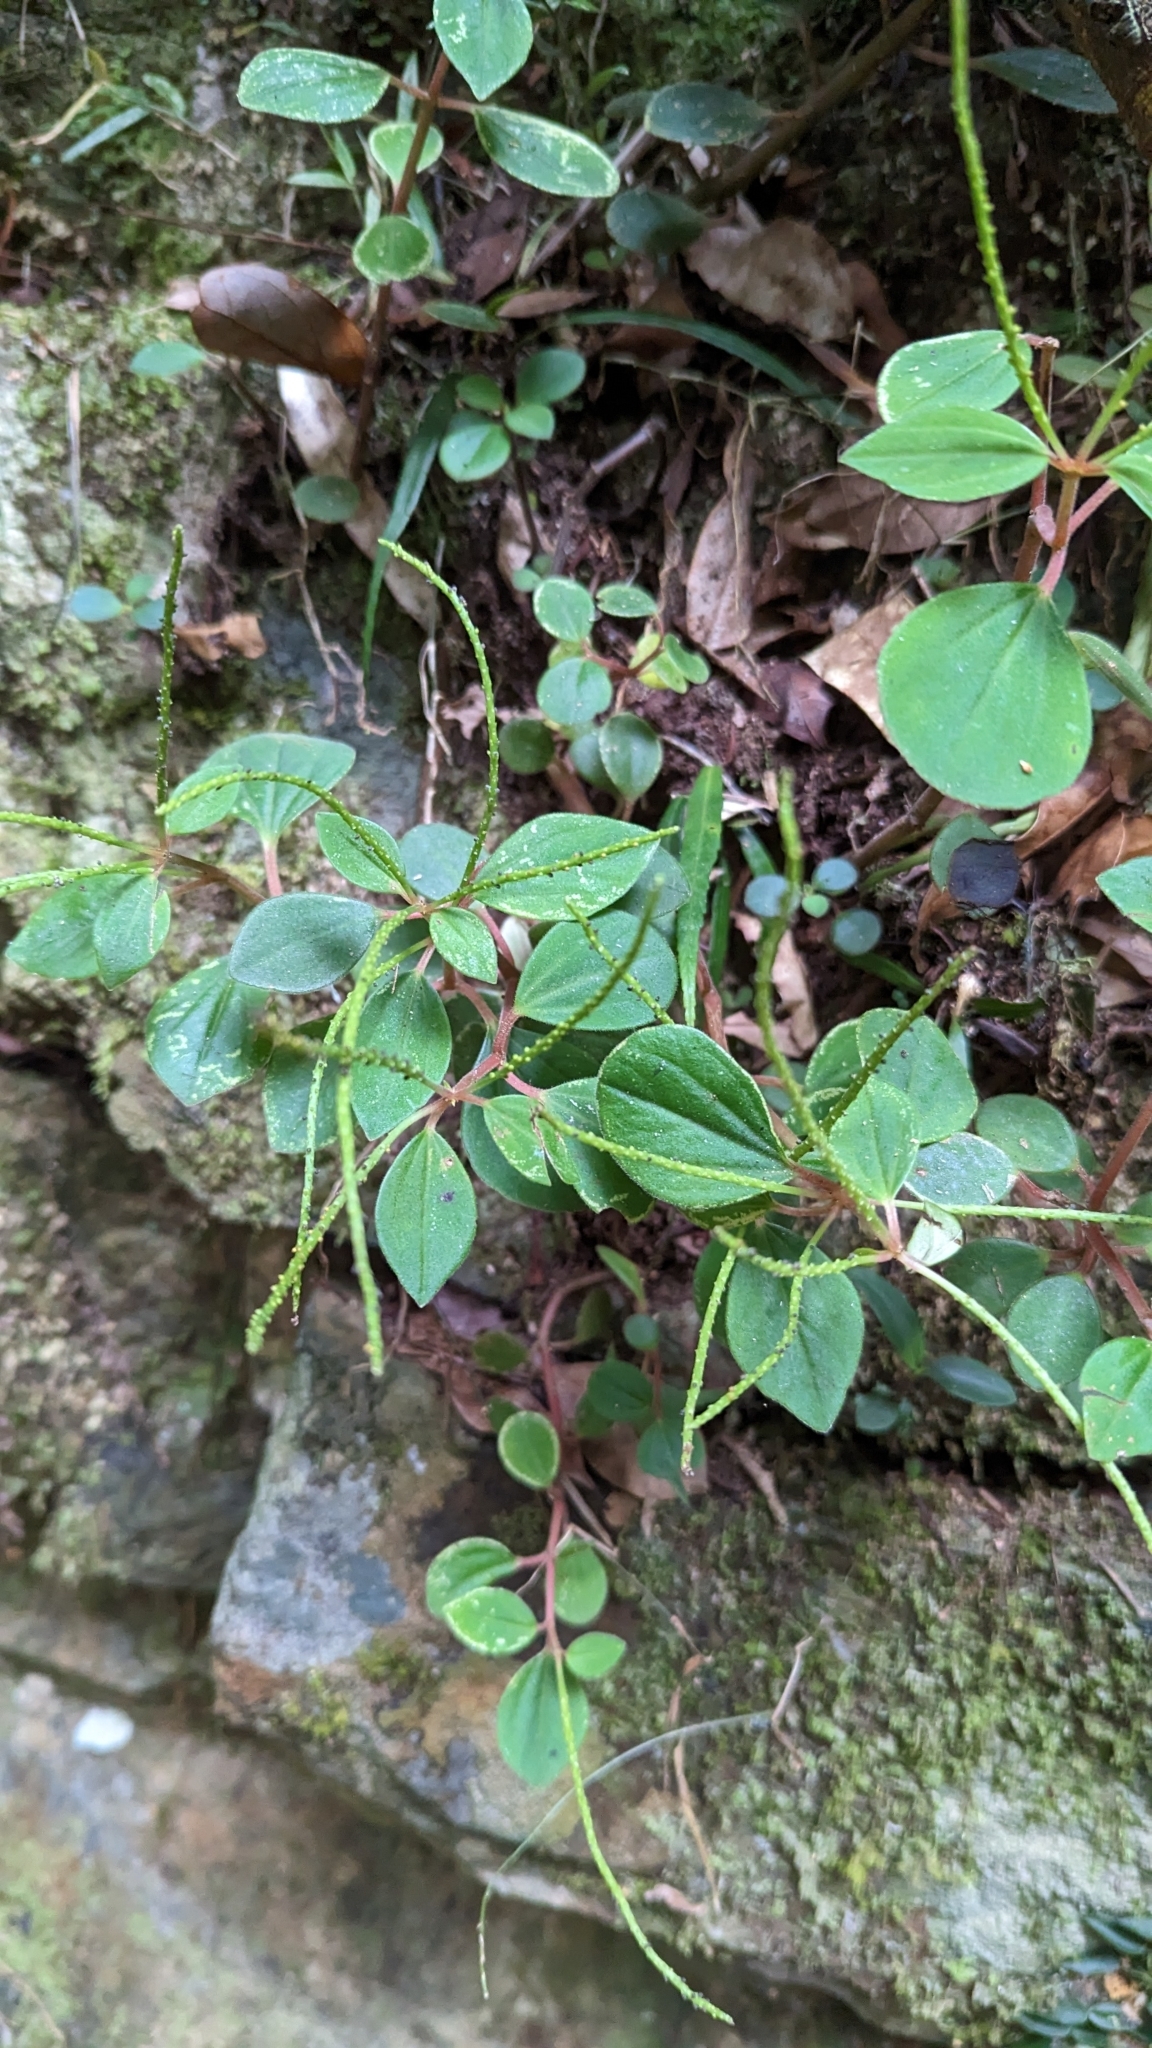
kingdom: Plantae
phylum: Tracheophyta
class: Magnoliopsida
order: Piperales
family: Piperaceae
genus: Peperomia
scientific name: Peperomia leptostachya
